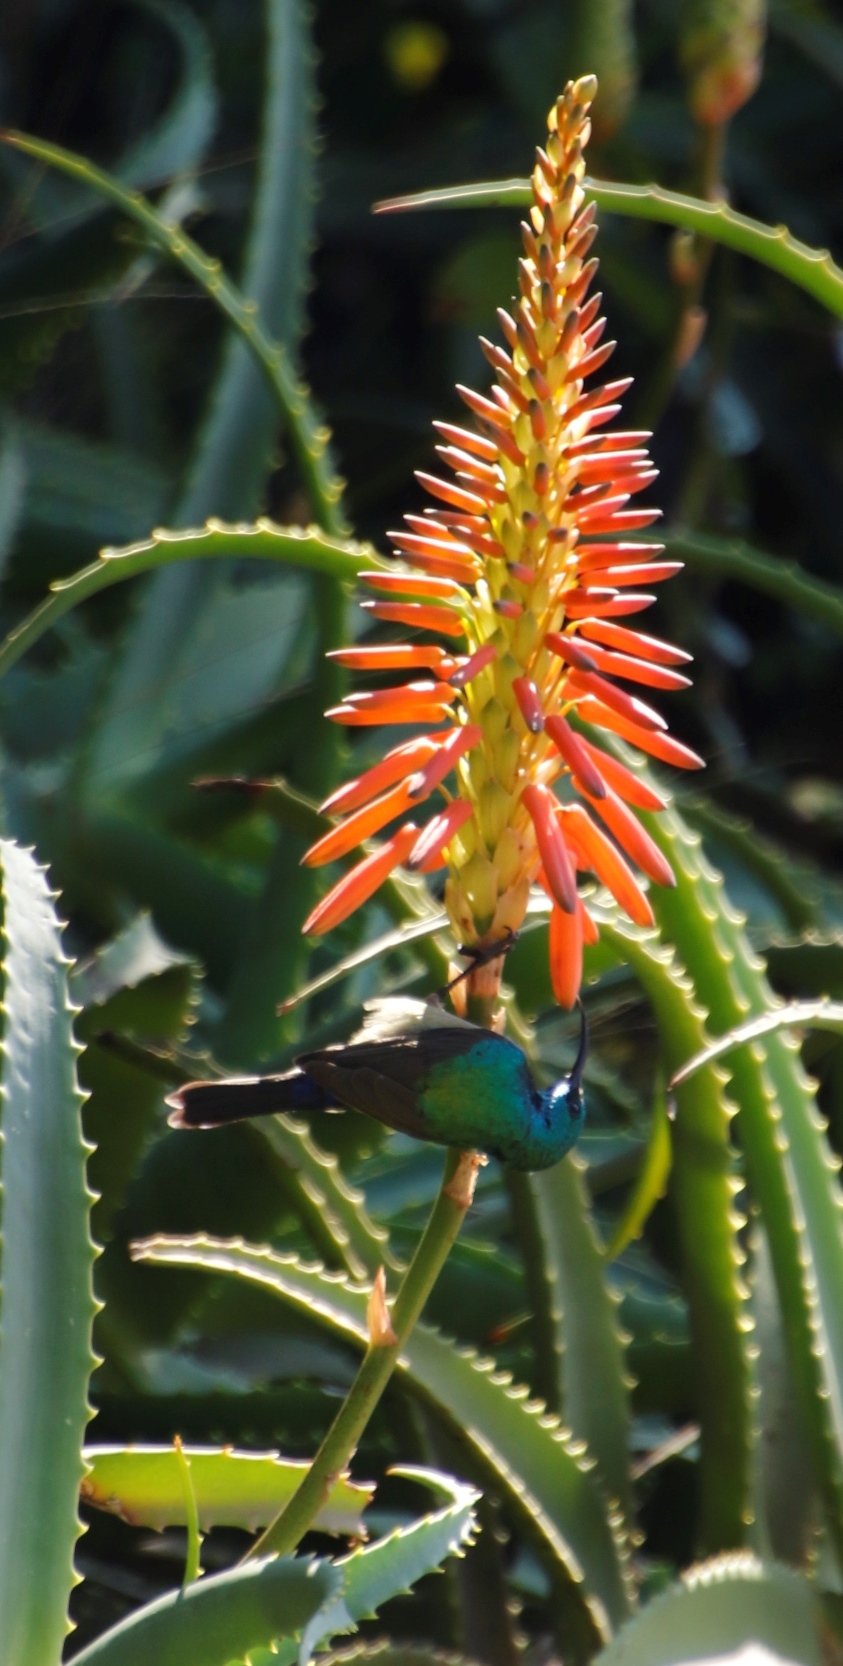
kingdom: Animalia
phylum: Chordata
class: Aves
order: Passeriformes
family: Nectariniidae
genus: Cinnyris
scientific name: Cinnyris chalybeus
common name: Southern double-collared sunbird
